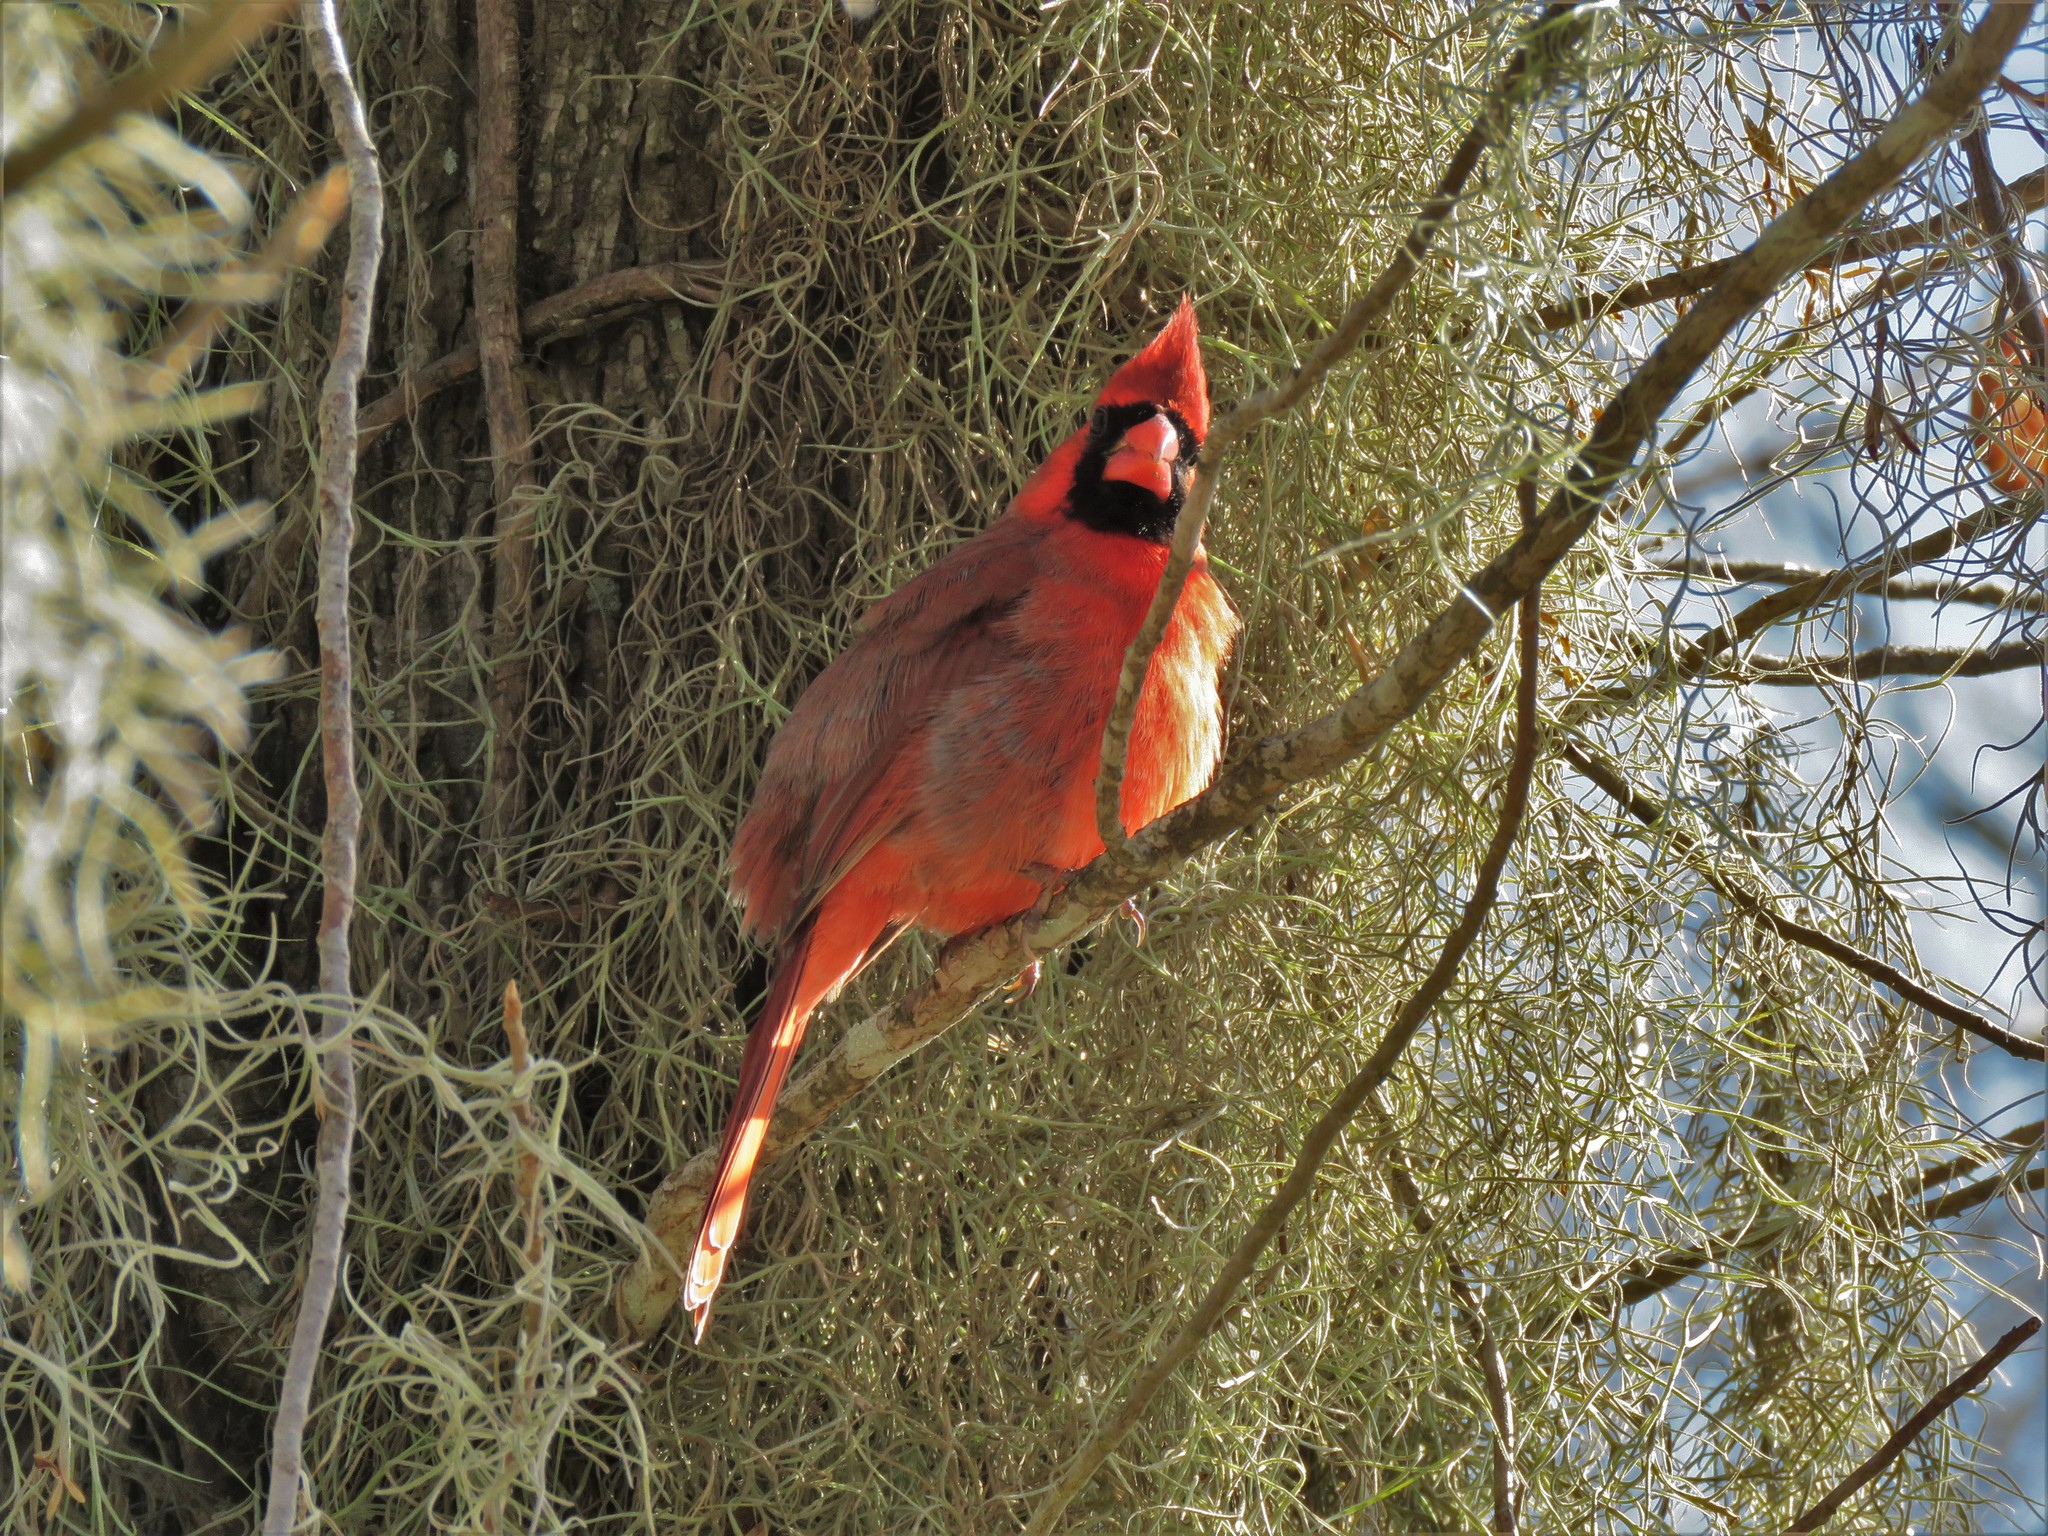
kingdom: Animalia
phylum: Chordata
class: Aves
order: Passeriformes
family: Cardinalidae
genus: Cardinalis
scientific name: Cardinalis cardinalis
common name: Northern cardinal
